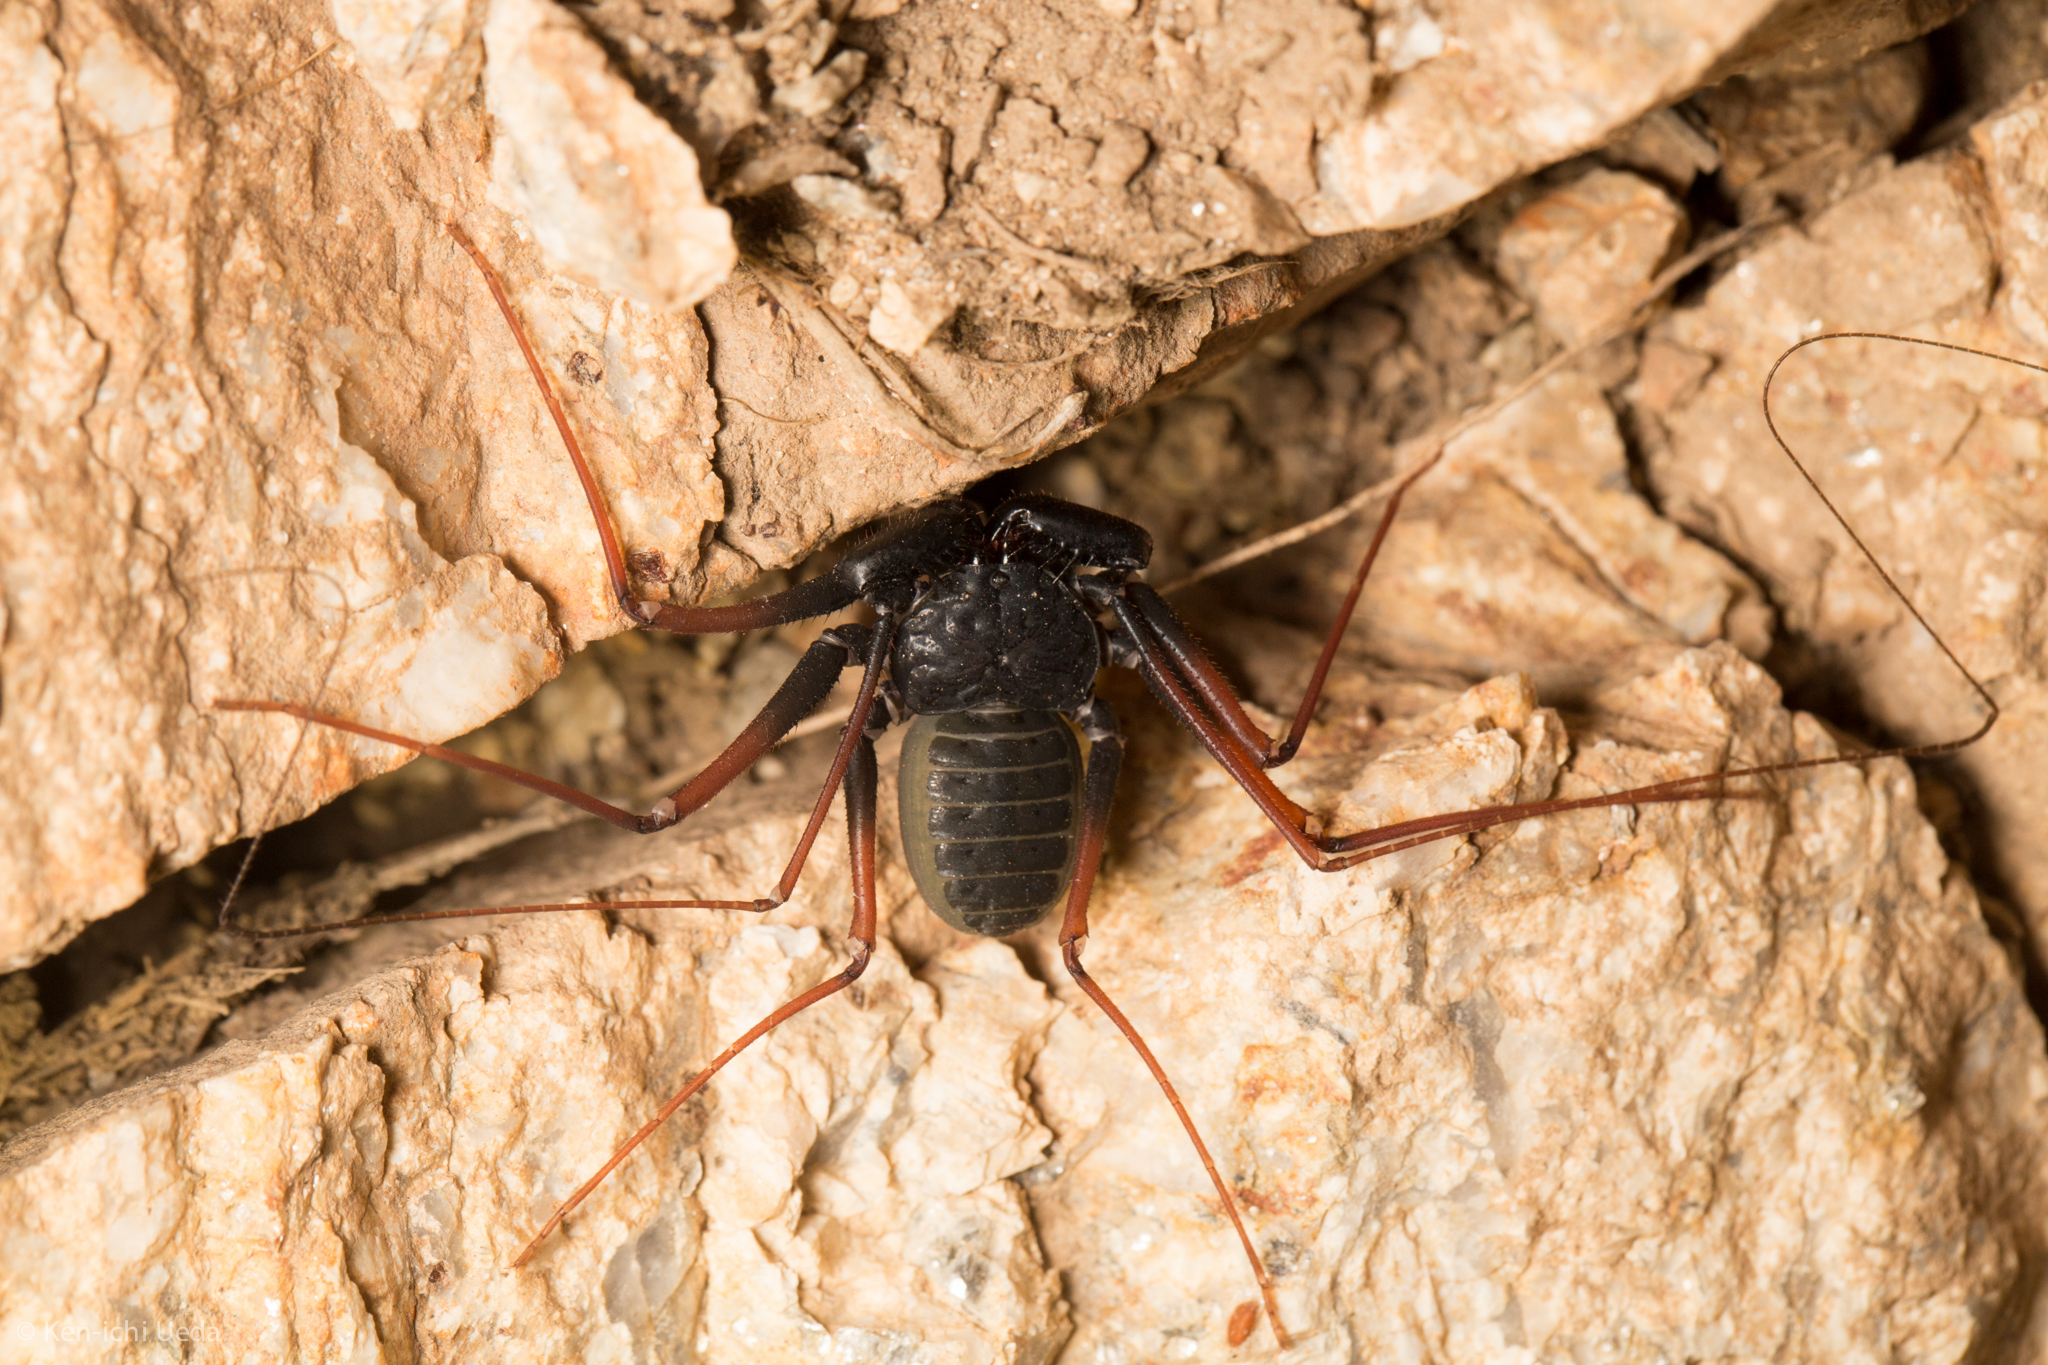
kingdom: Animalia
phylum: Arthropoda
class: Arachnida
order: Amblypygi
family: Phrynidae
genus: Paraphrynus
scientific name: Paraphrynus carolynae
